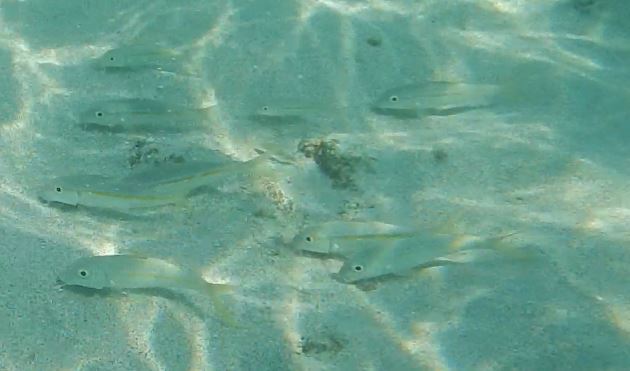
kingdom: Animalia
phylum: Chordata
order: Perciformes
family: Mullidae
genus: Mulloidichthys
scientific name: Mulloidichthys dentatus
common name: Mexican goatfish
